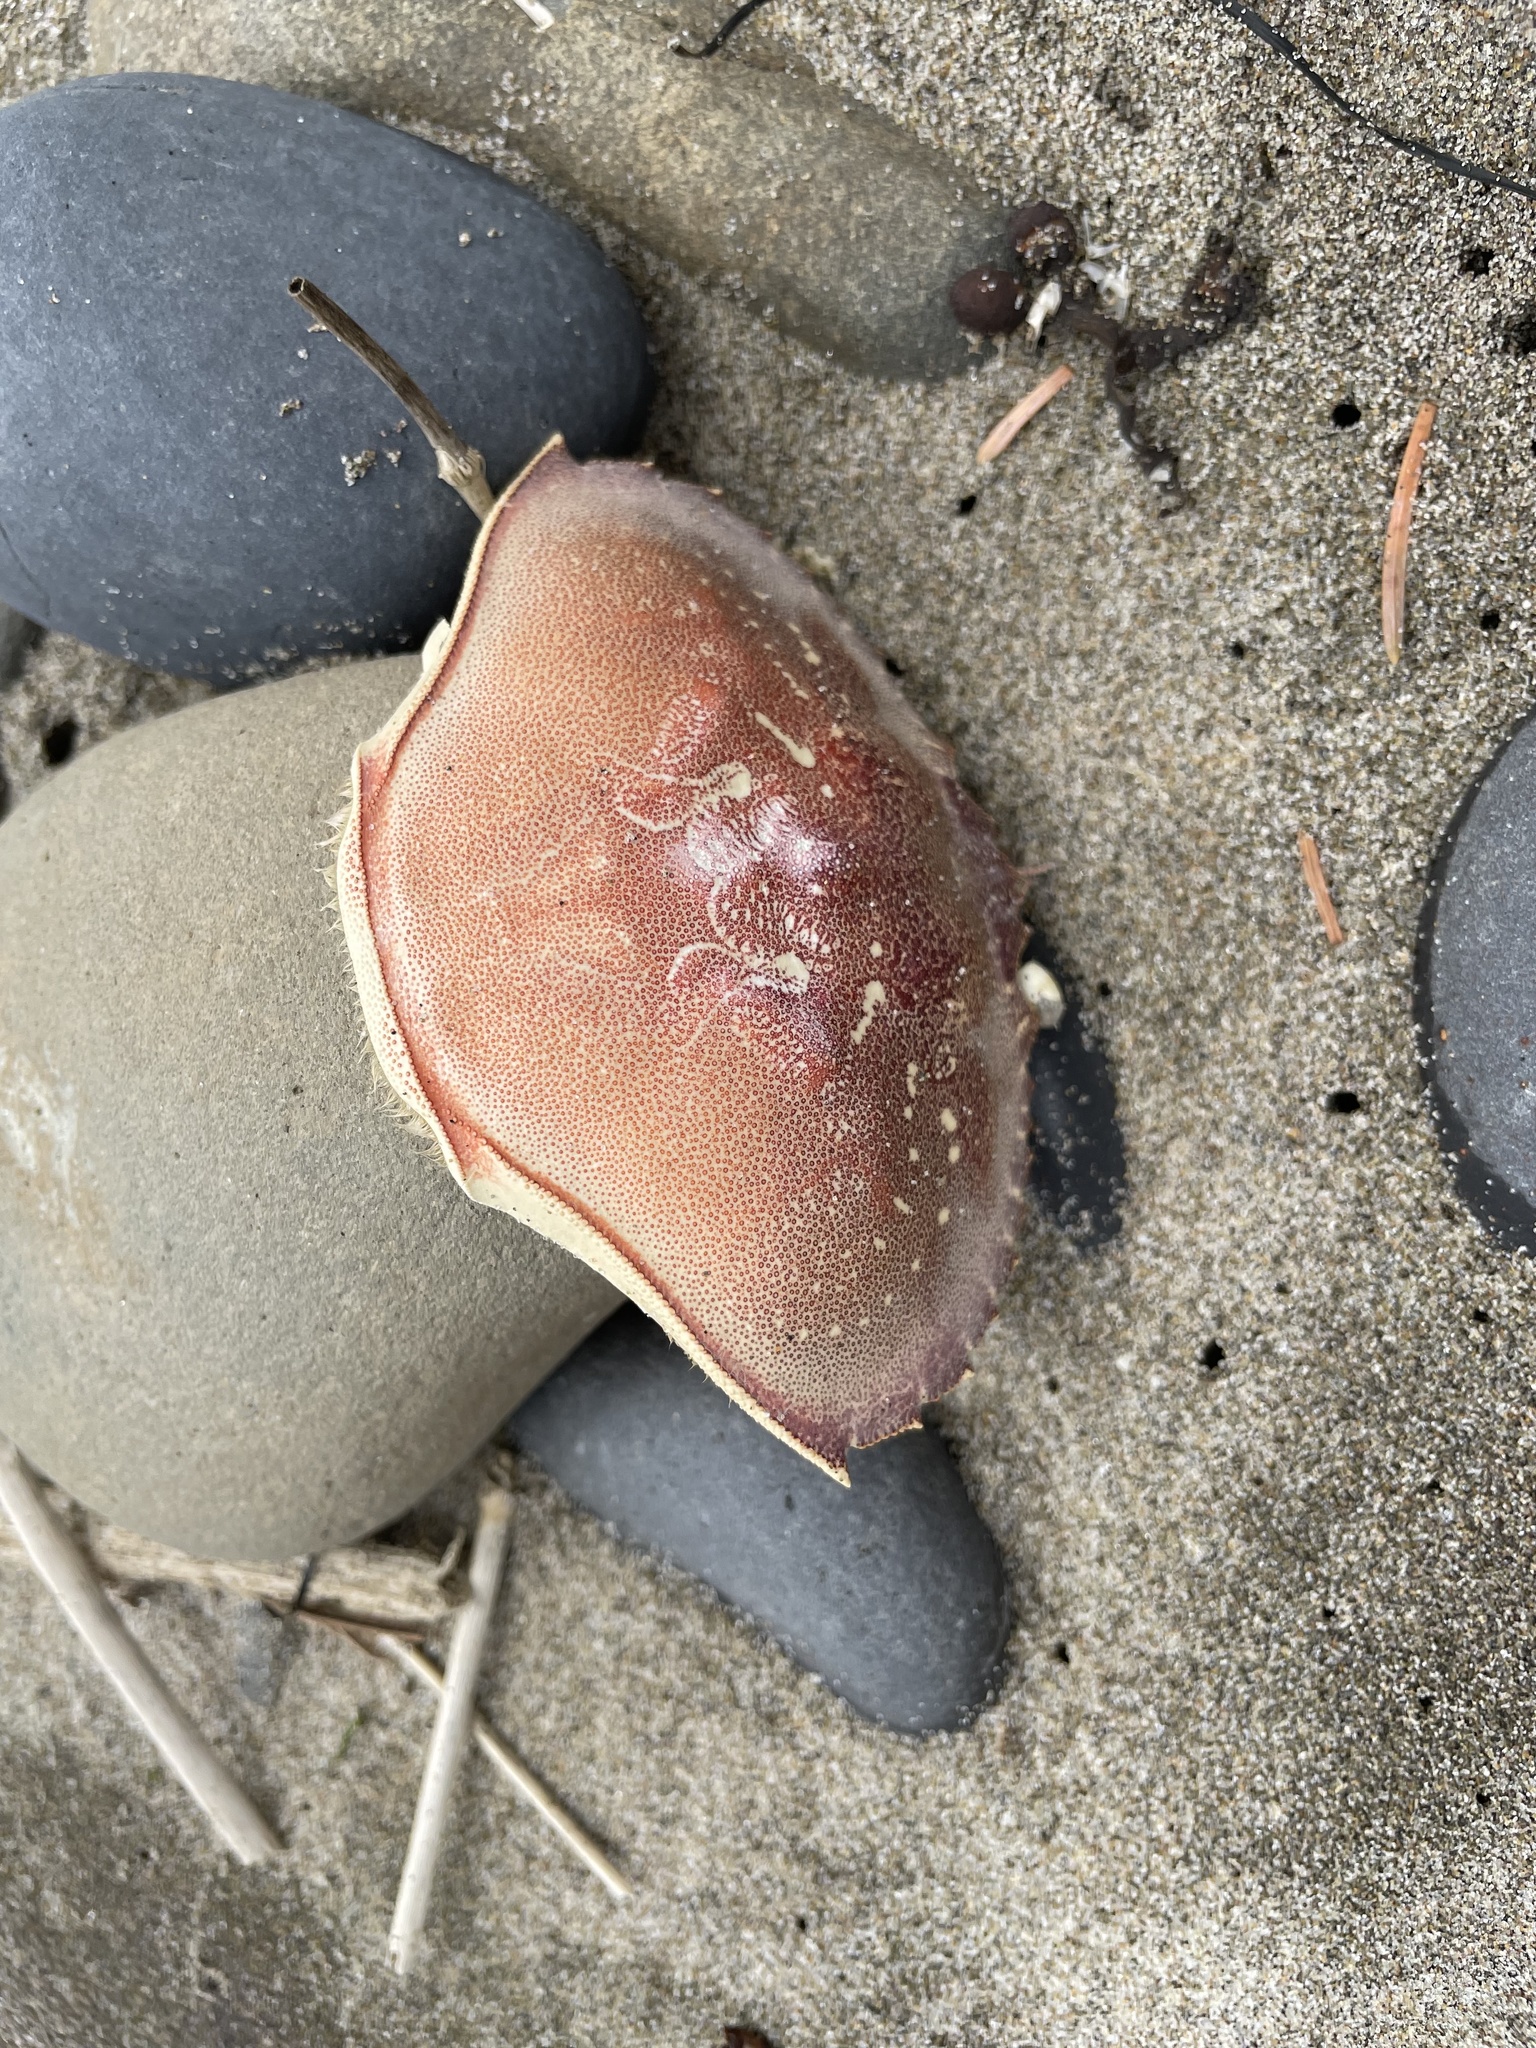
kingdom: Animalia
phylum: Arthropoda
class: Malacostraca
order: Decapoda
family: Cancridae
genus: Metacarcinus
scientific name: Metacarcinus magister
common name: Californian crab
